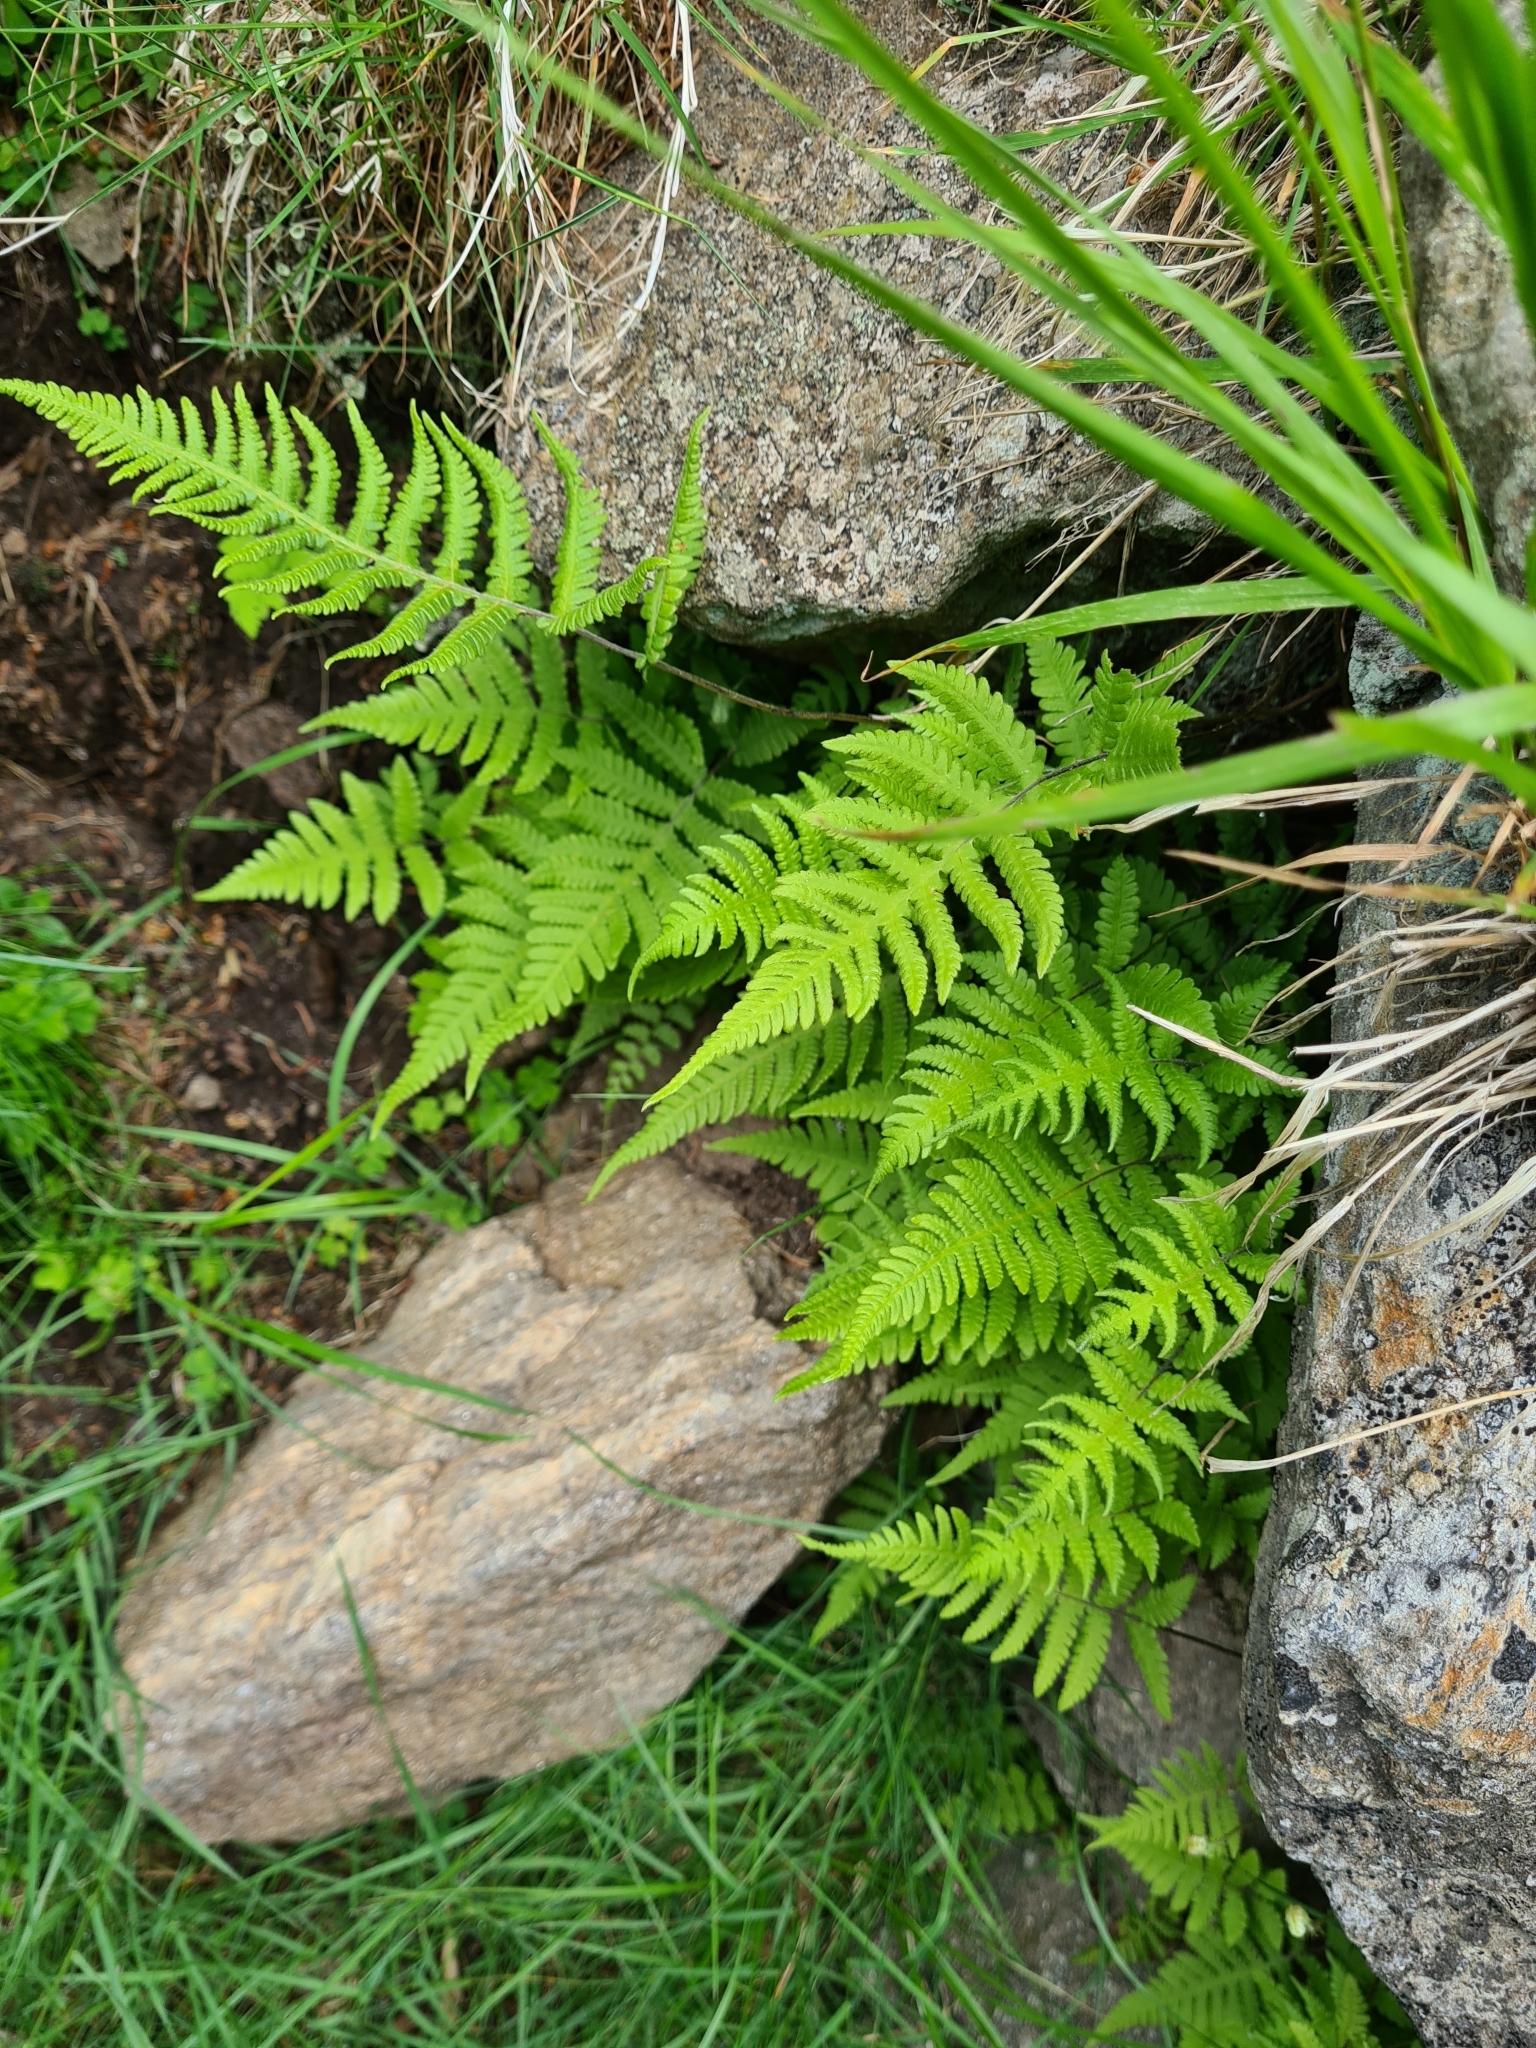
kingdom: Plantae
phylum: Tracheophyta
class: Polypodiopsida
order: Polypodiales
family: Thelypteridaceae
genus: Phegopteris
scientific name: Phegopteris connectilis
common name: Beech fern
